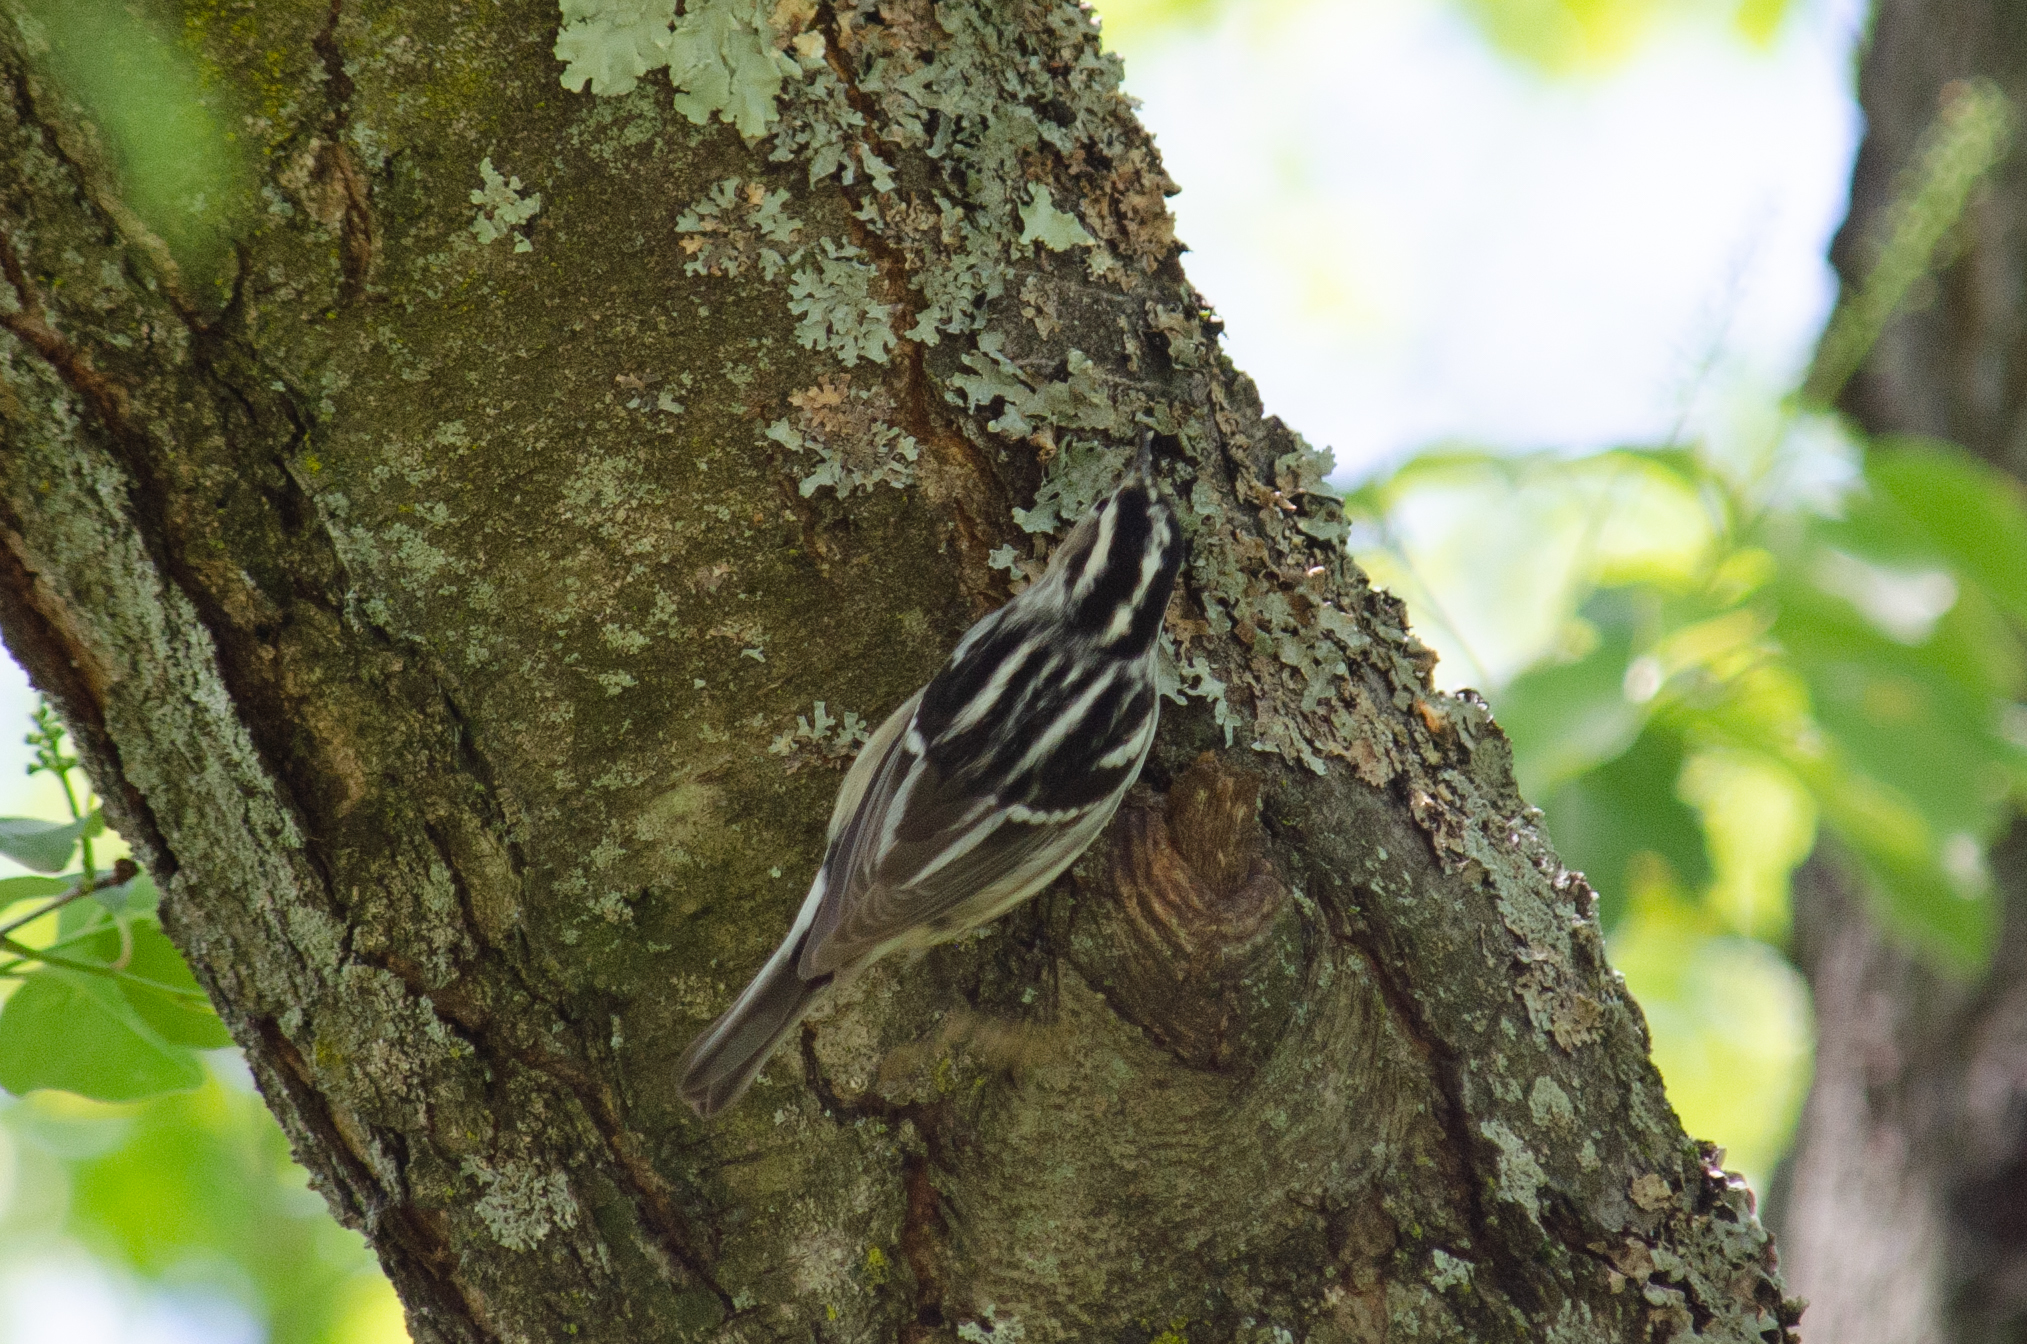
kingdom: Animalia
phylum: Chordata
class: Aves
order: Passeriformes
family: Parulidae
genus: Mniotilta
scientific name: Mniotilta varia
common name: Black-and-white warbler
